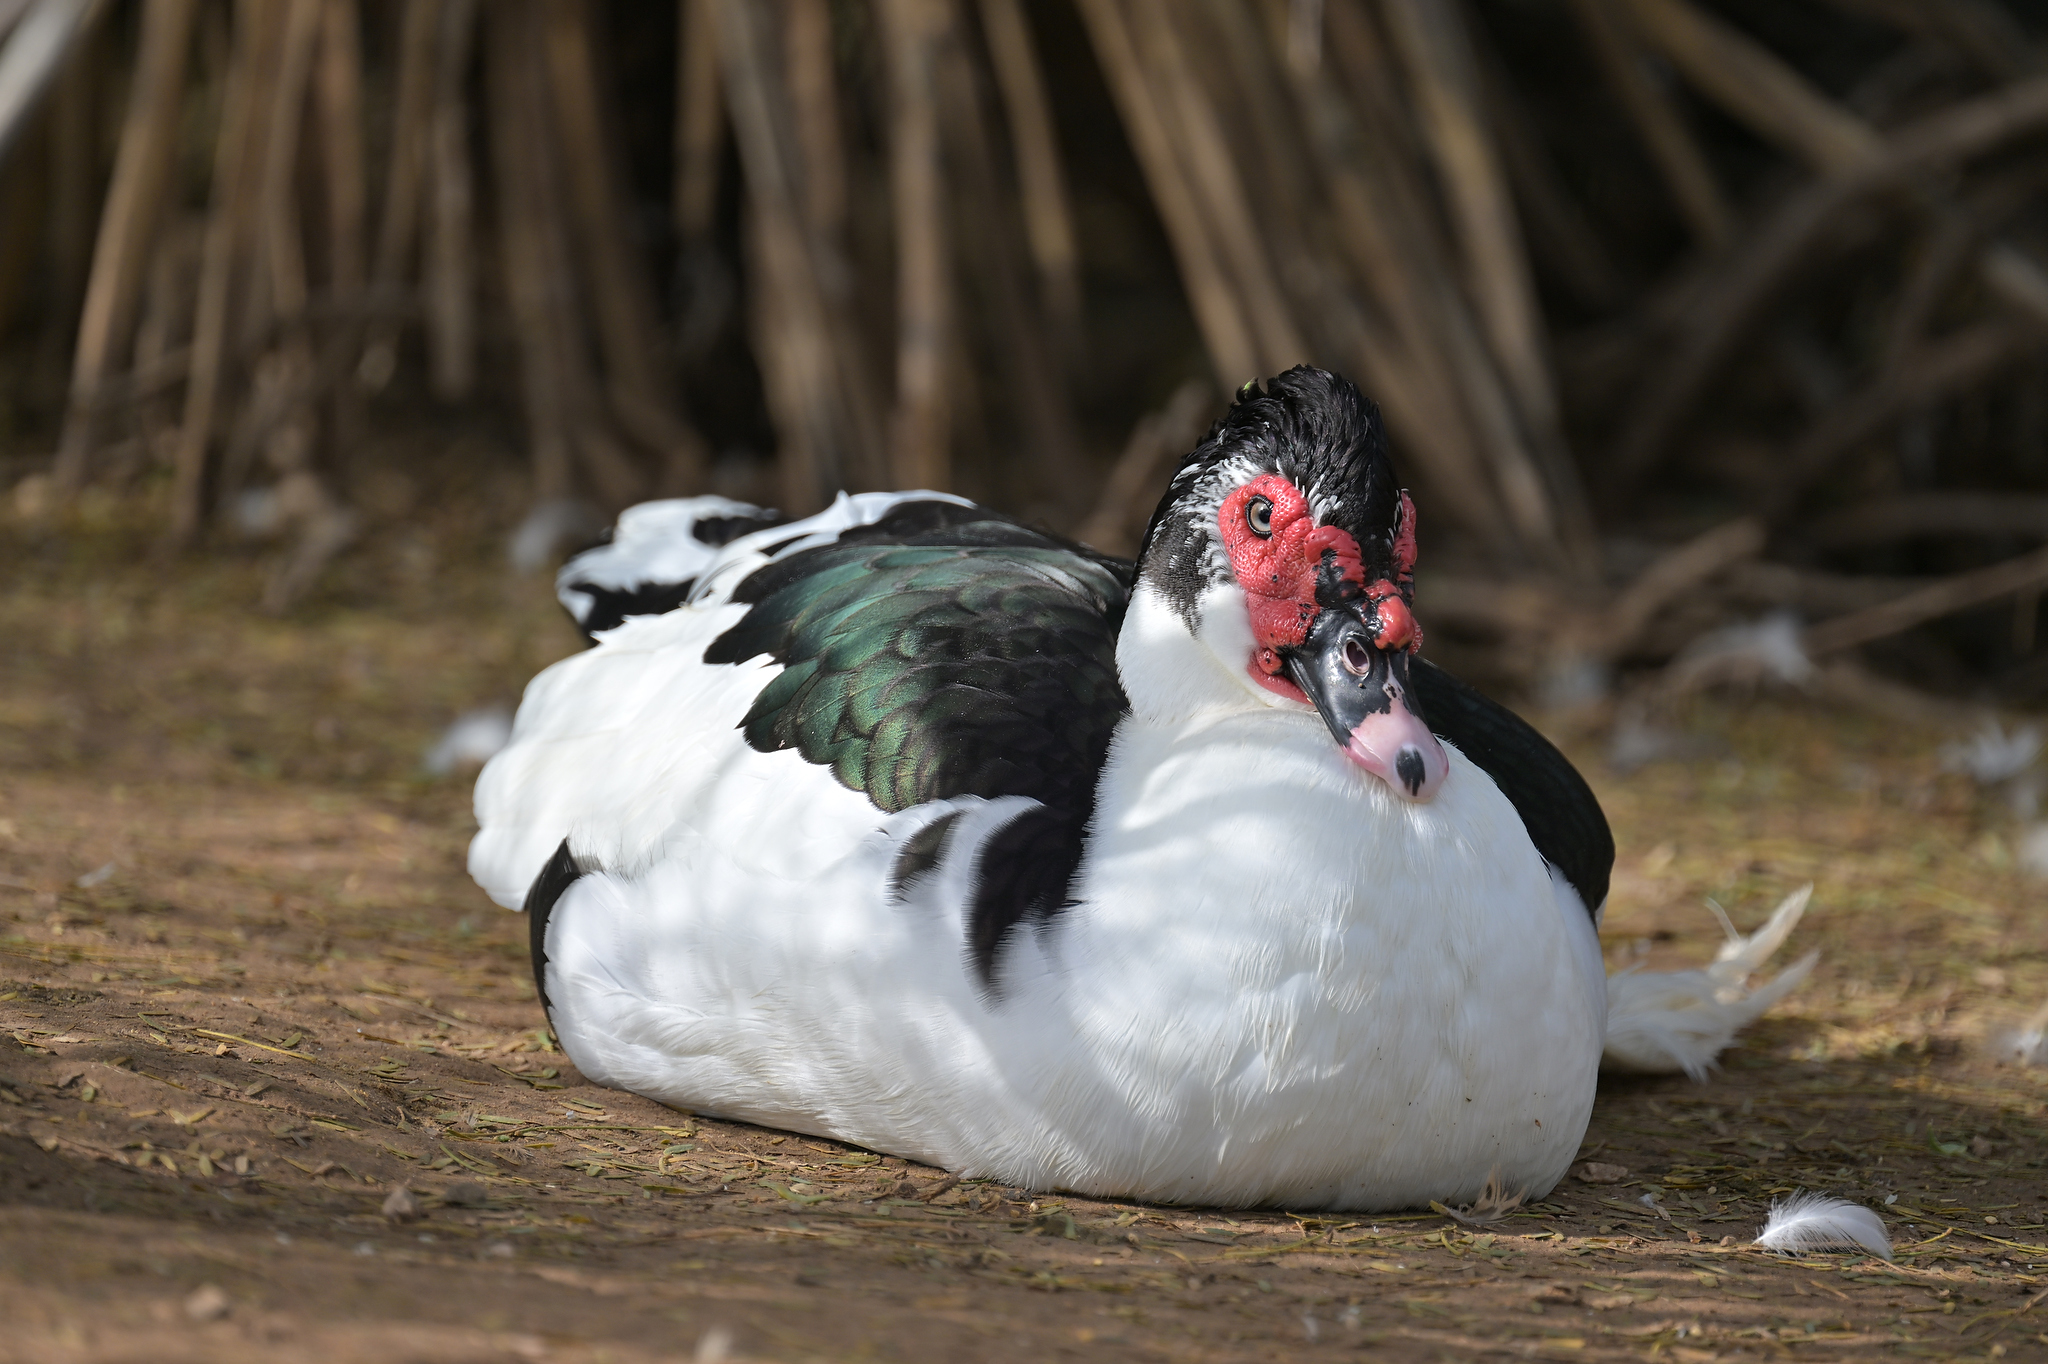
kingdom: Animalia
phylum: Chordata
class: Aves
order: Anseriformes
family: Anatidae
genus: Cairina
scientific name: Cairina moschata
